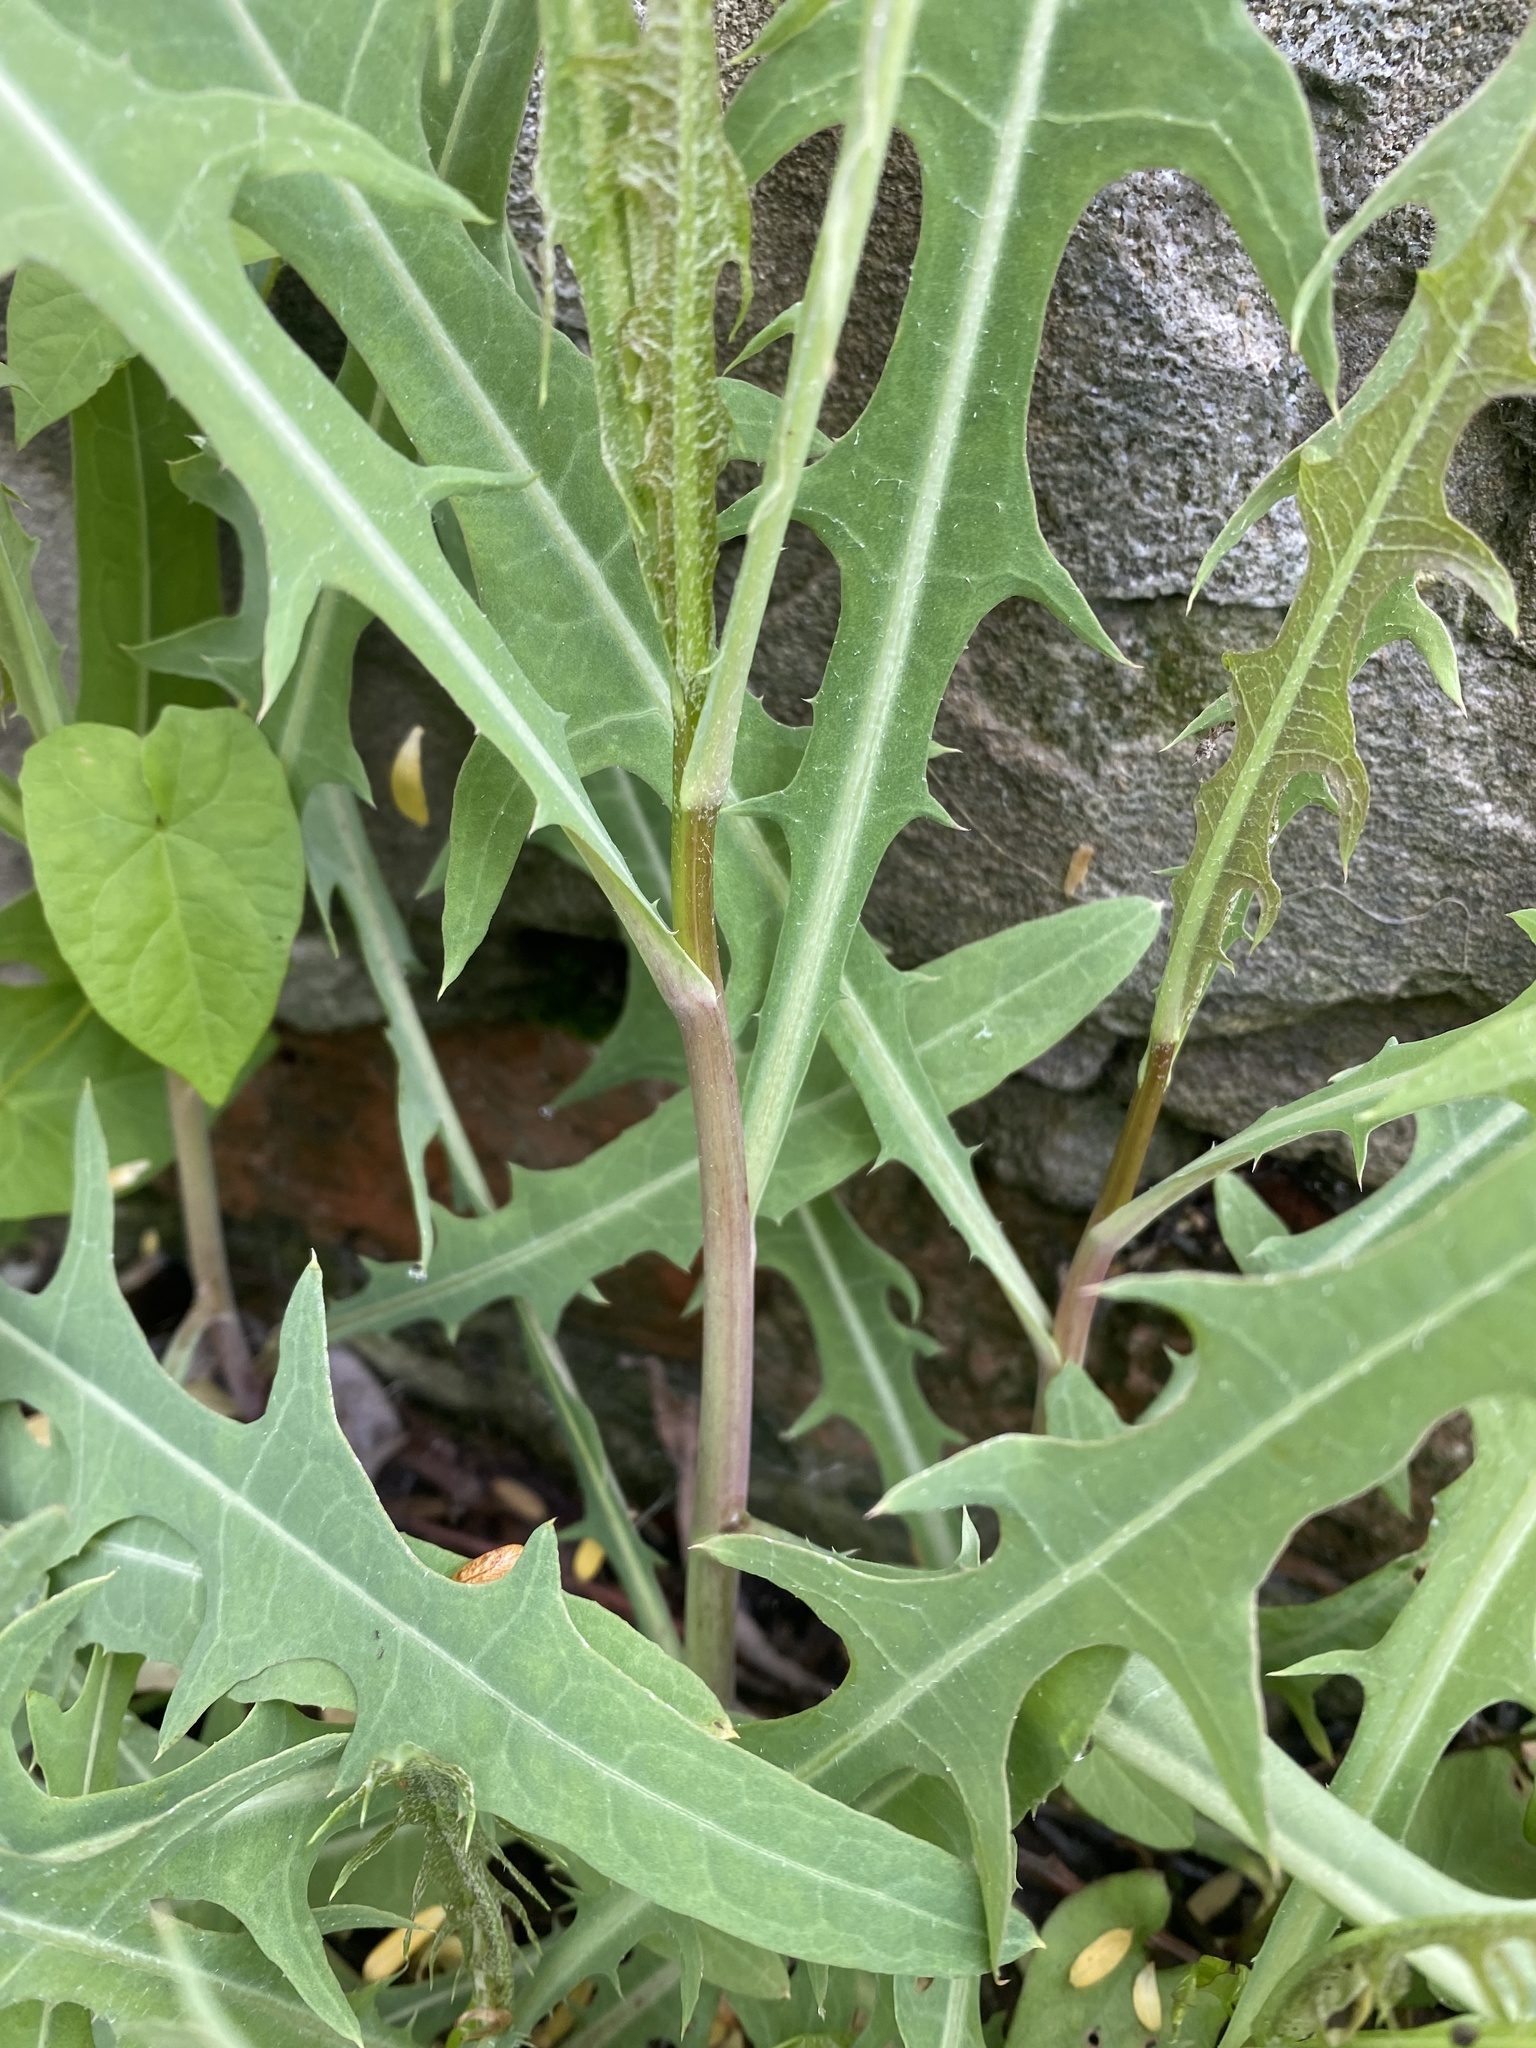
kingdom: Plantae
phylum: Tracheophyta
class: Magnoliopsida
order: Asterales
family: Asteraceae
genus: Lactuca
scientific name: Lactuca tatarica
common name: Blue lettuce
